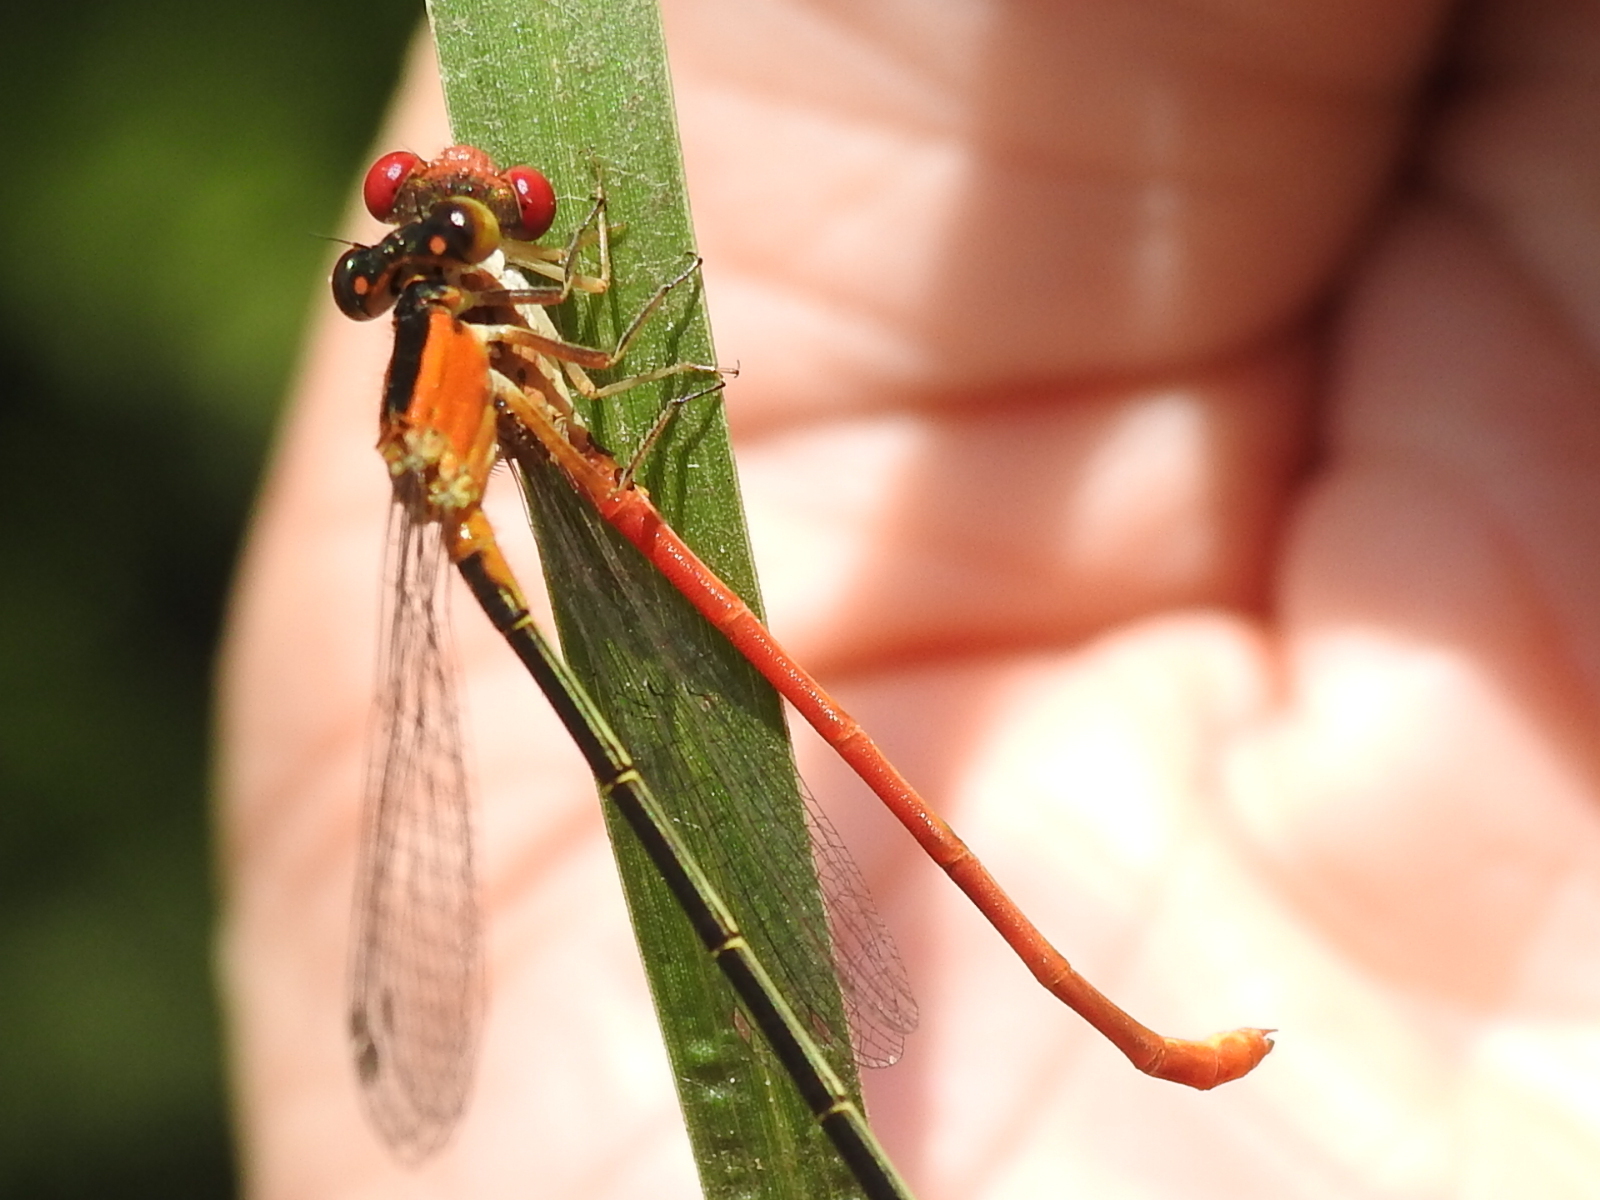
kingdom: Animalia
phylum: Arthropoda
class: Insecta
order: Odonata
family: Coenagrionidae
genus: Telebasis
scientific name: Telebasis salva
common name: Desert firetail
